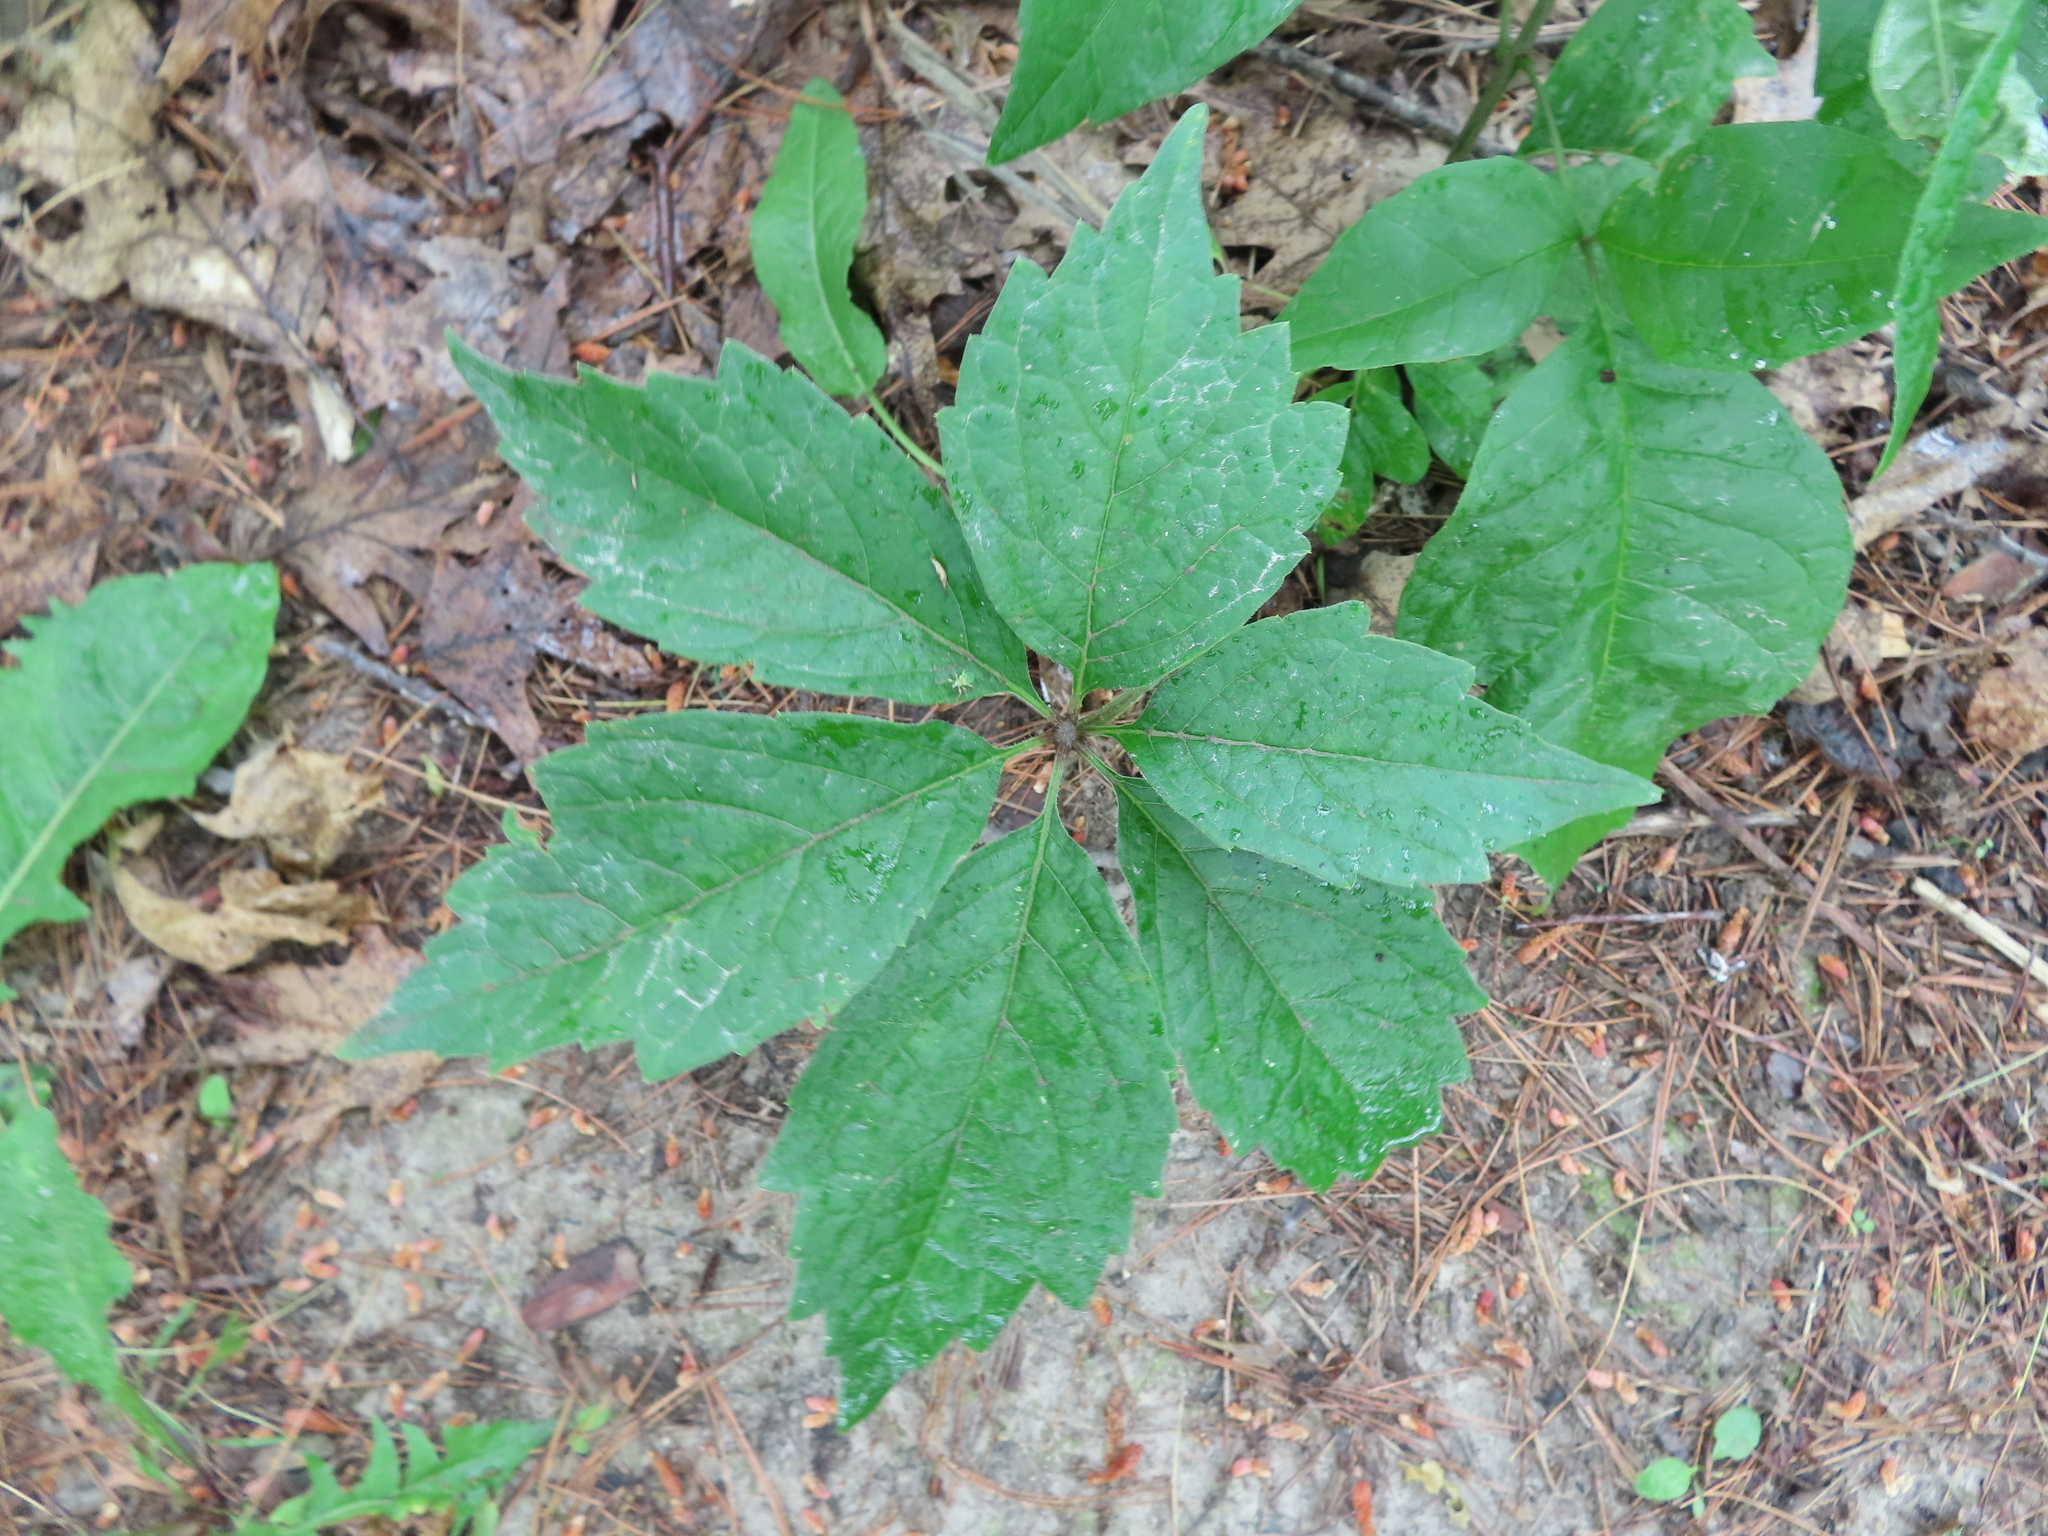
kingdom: Plantae
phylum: Tracheophyta
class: Magnoliopsida
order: Vitales
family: Vitaceae
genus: Parthenocissus
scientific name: Parthenocissus inserta
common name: False virginia-creeper
